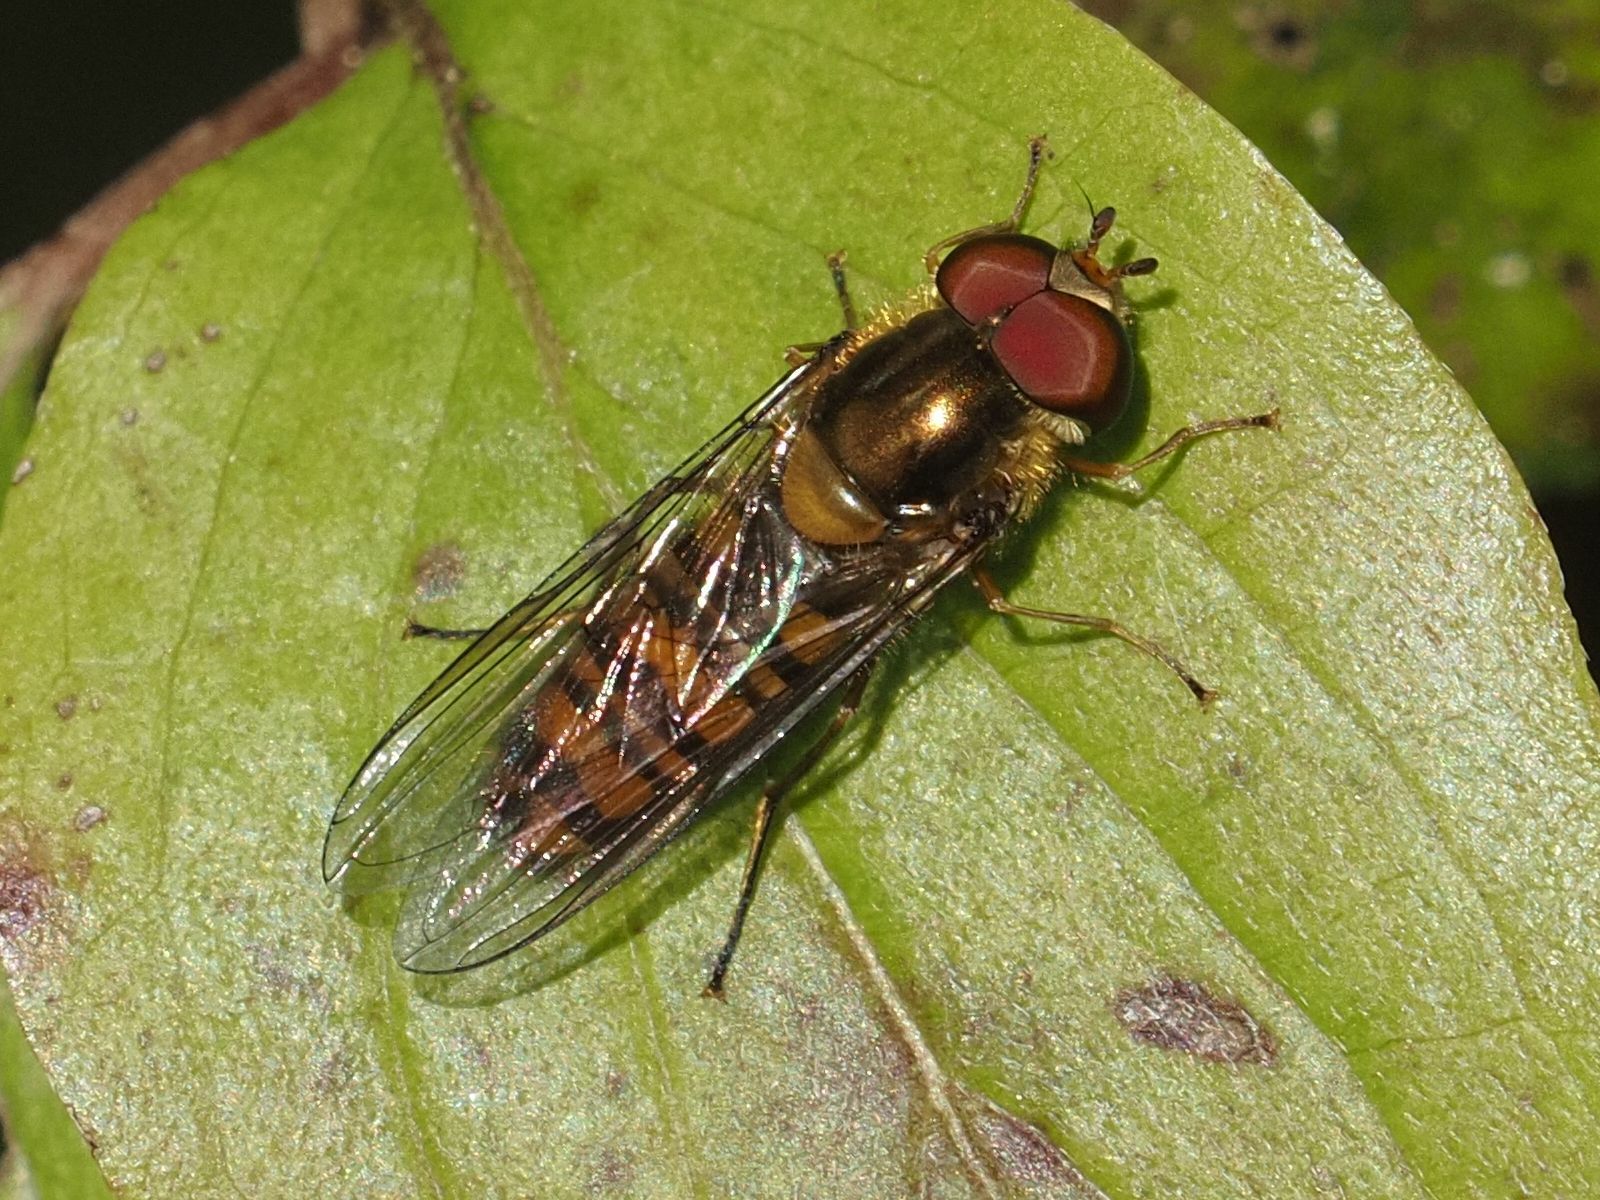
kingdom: Animalia
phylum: Arthropoda
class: Insecta
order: Diptera
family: Syrphidae
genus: Episyrphus
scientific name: Episyrphus balteatus
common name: Marmalade hoverfly
